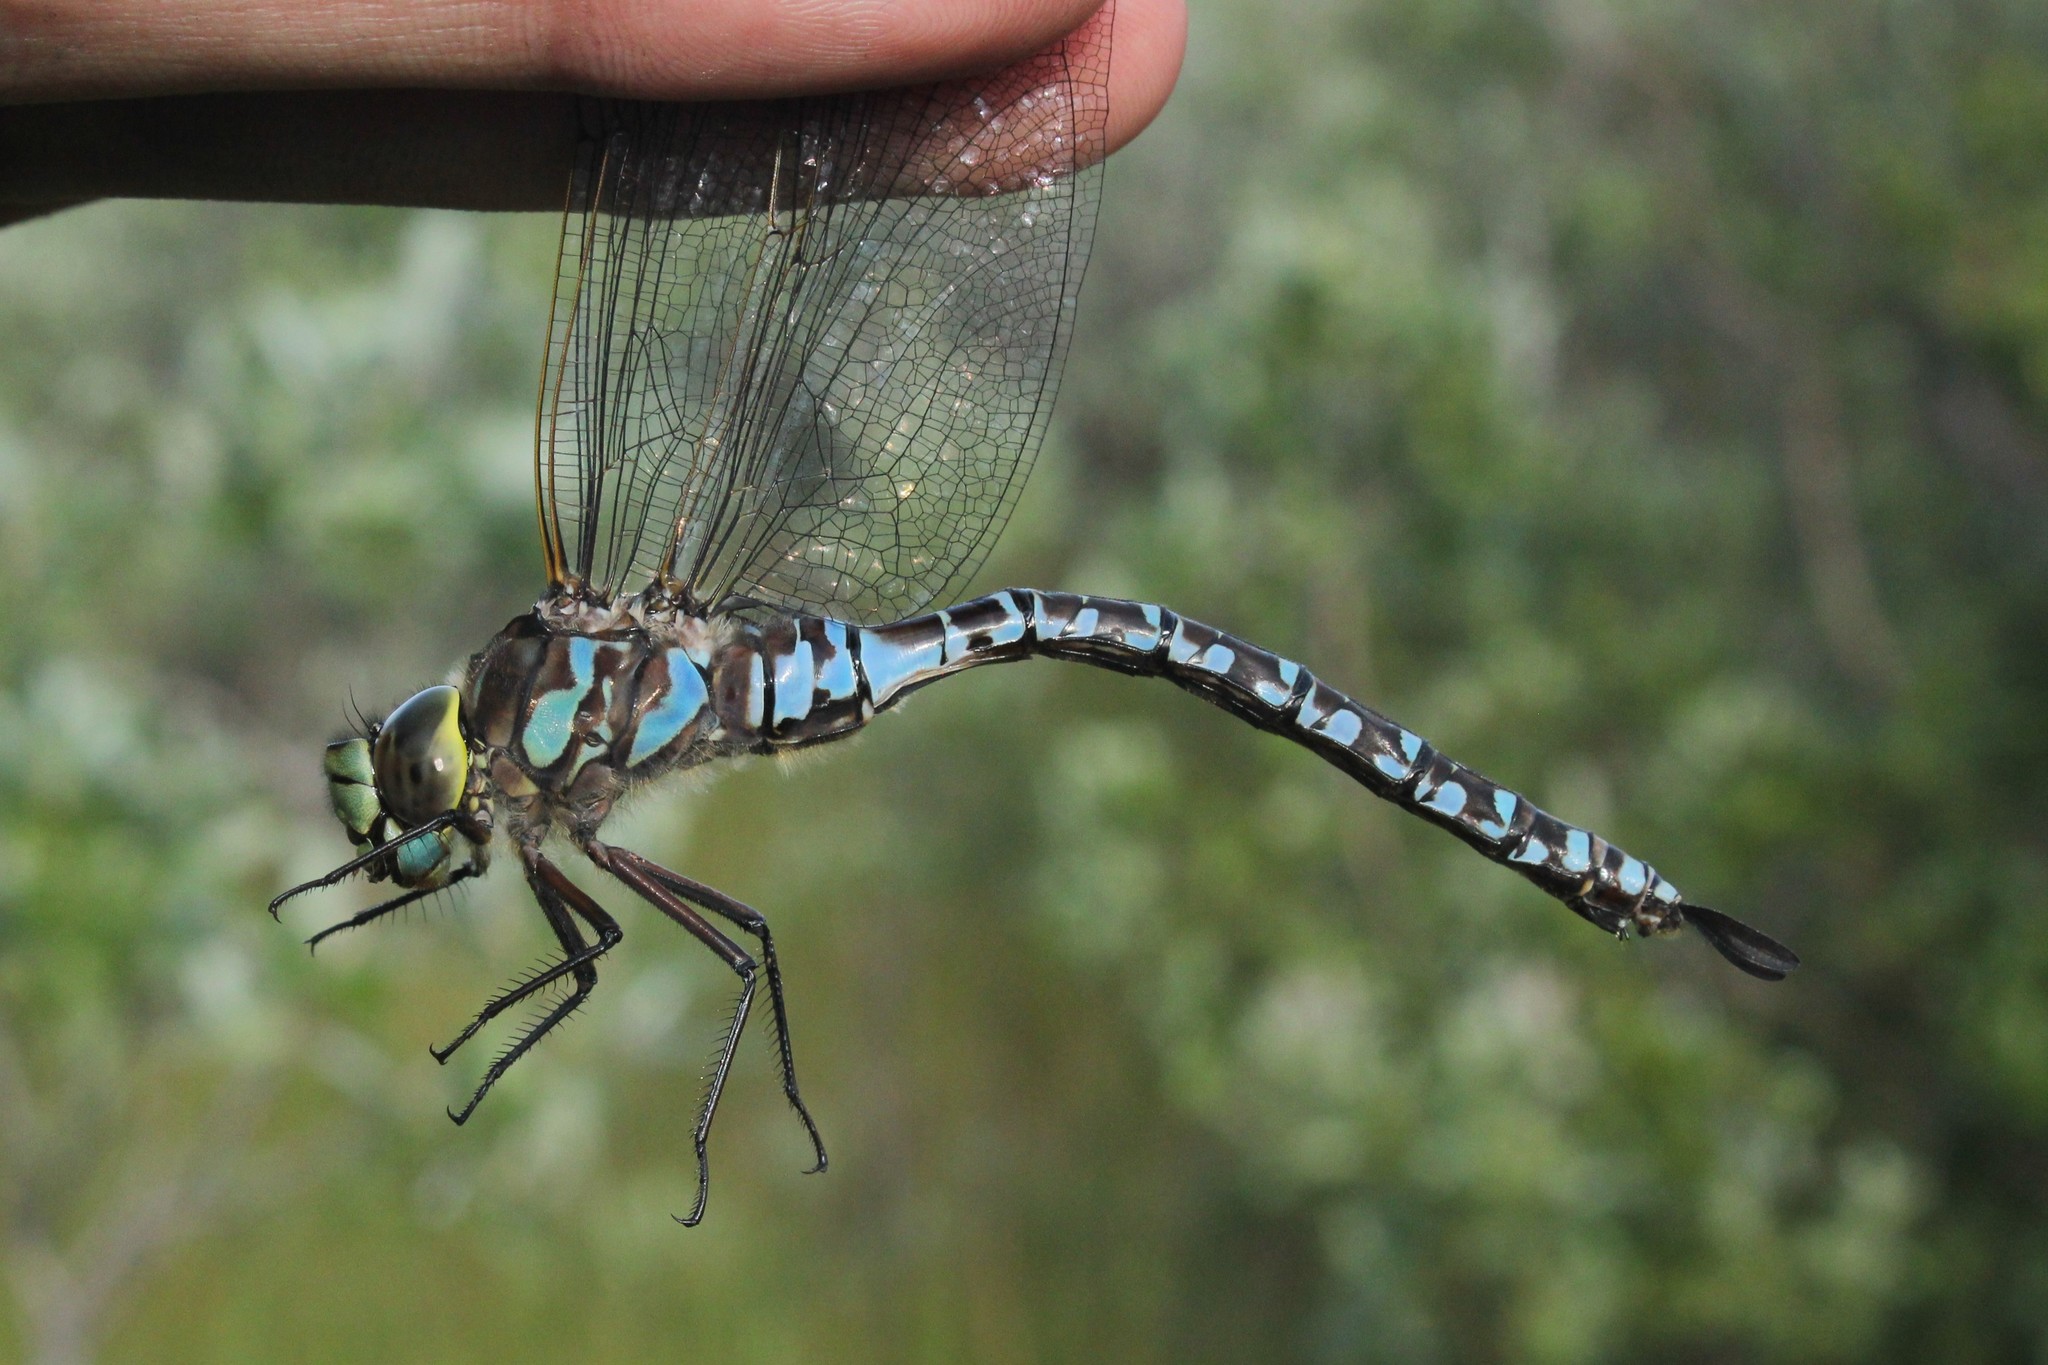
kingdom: Animalia
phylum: Arthropoda
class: Insecta
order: Odonata
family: Aeshnidae
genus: Aeshna
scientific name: Aeshna eremita
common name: Lake darner
